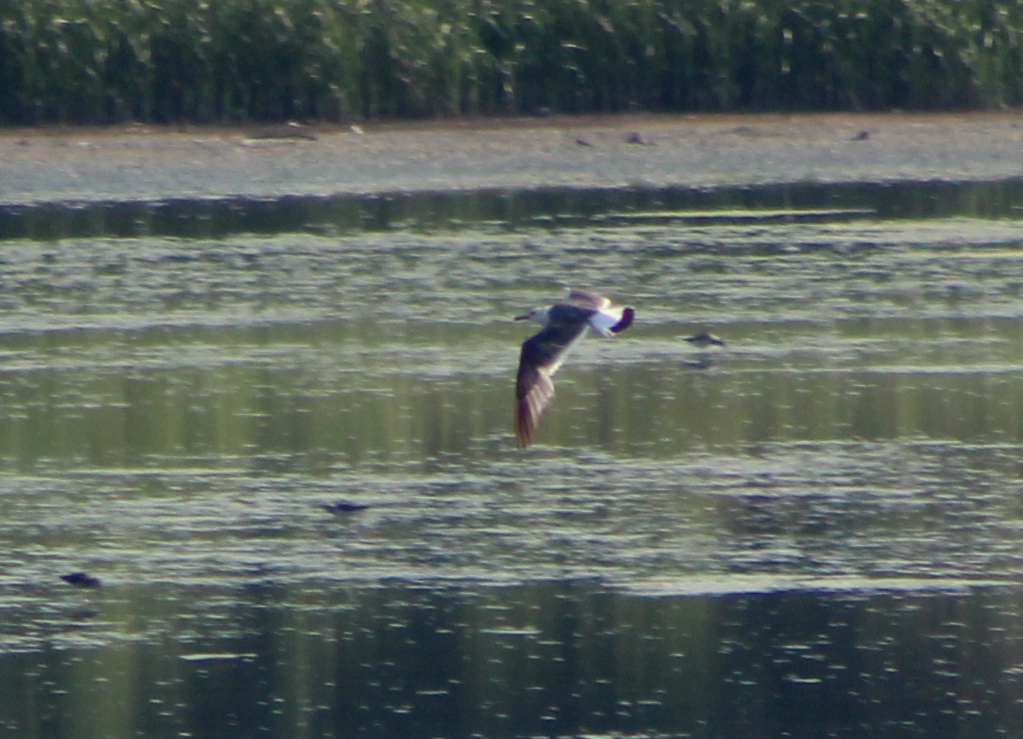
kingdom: Animalia
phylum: Chordata
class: Aves
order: Charadriiformes
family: Laridae
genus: Larus
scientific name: Larus crassirostris
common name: Black-tailed gull
